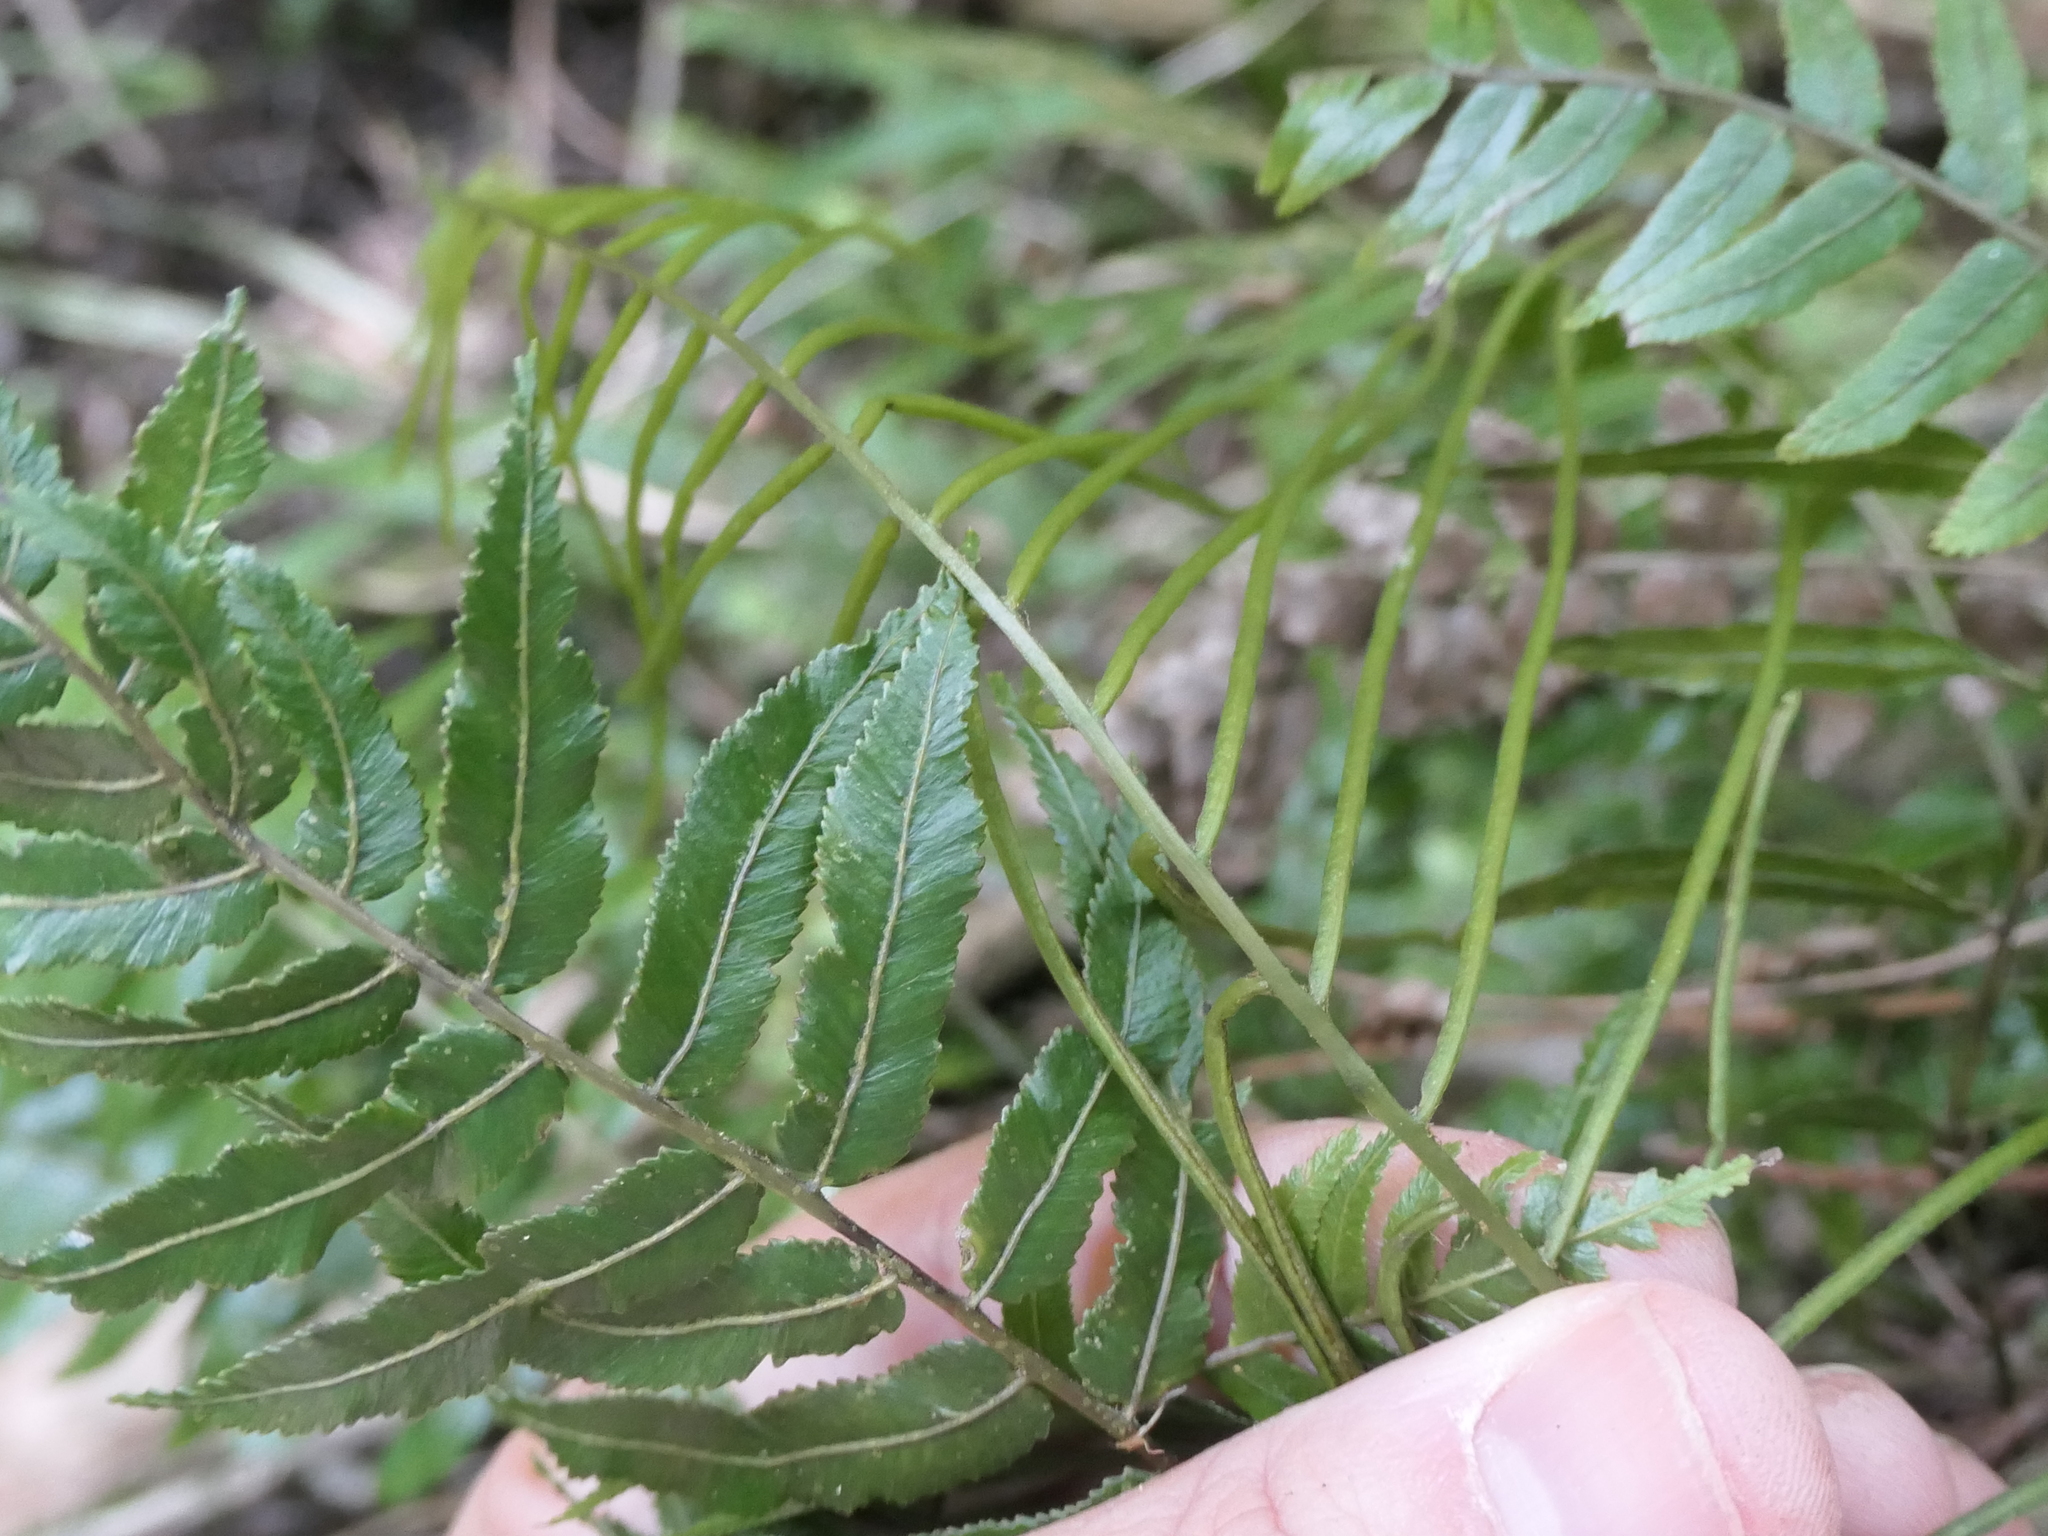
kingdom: Plantae
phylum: Tracheophyta
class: Polypodiopsida
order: Polypodiales
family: Blechnaceae
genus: Icarus
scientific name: Icarus filiformis
